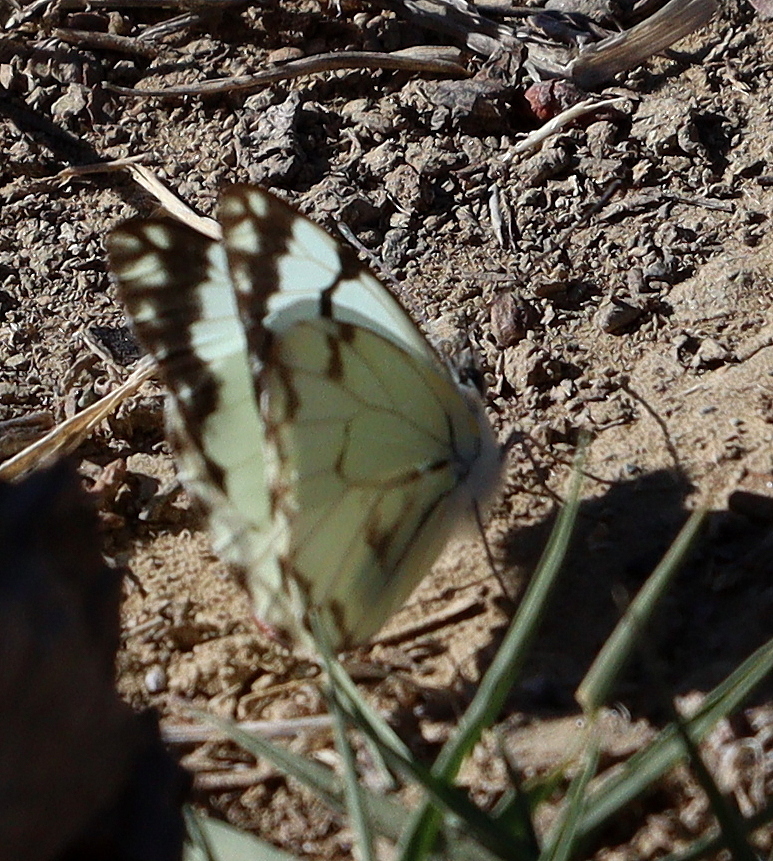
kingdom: Animalia
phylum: Arthropoda
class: Insecta
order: Lepidoptera
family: Pieridae
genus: Belenois
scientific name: Belenois aurota
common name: Brown-veined white
